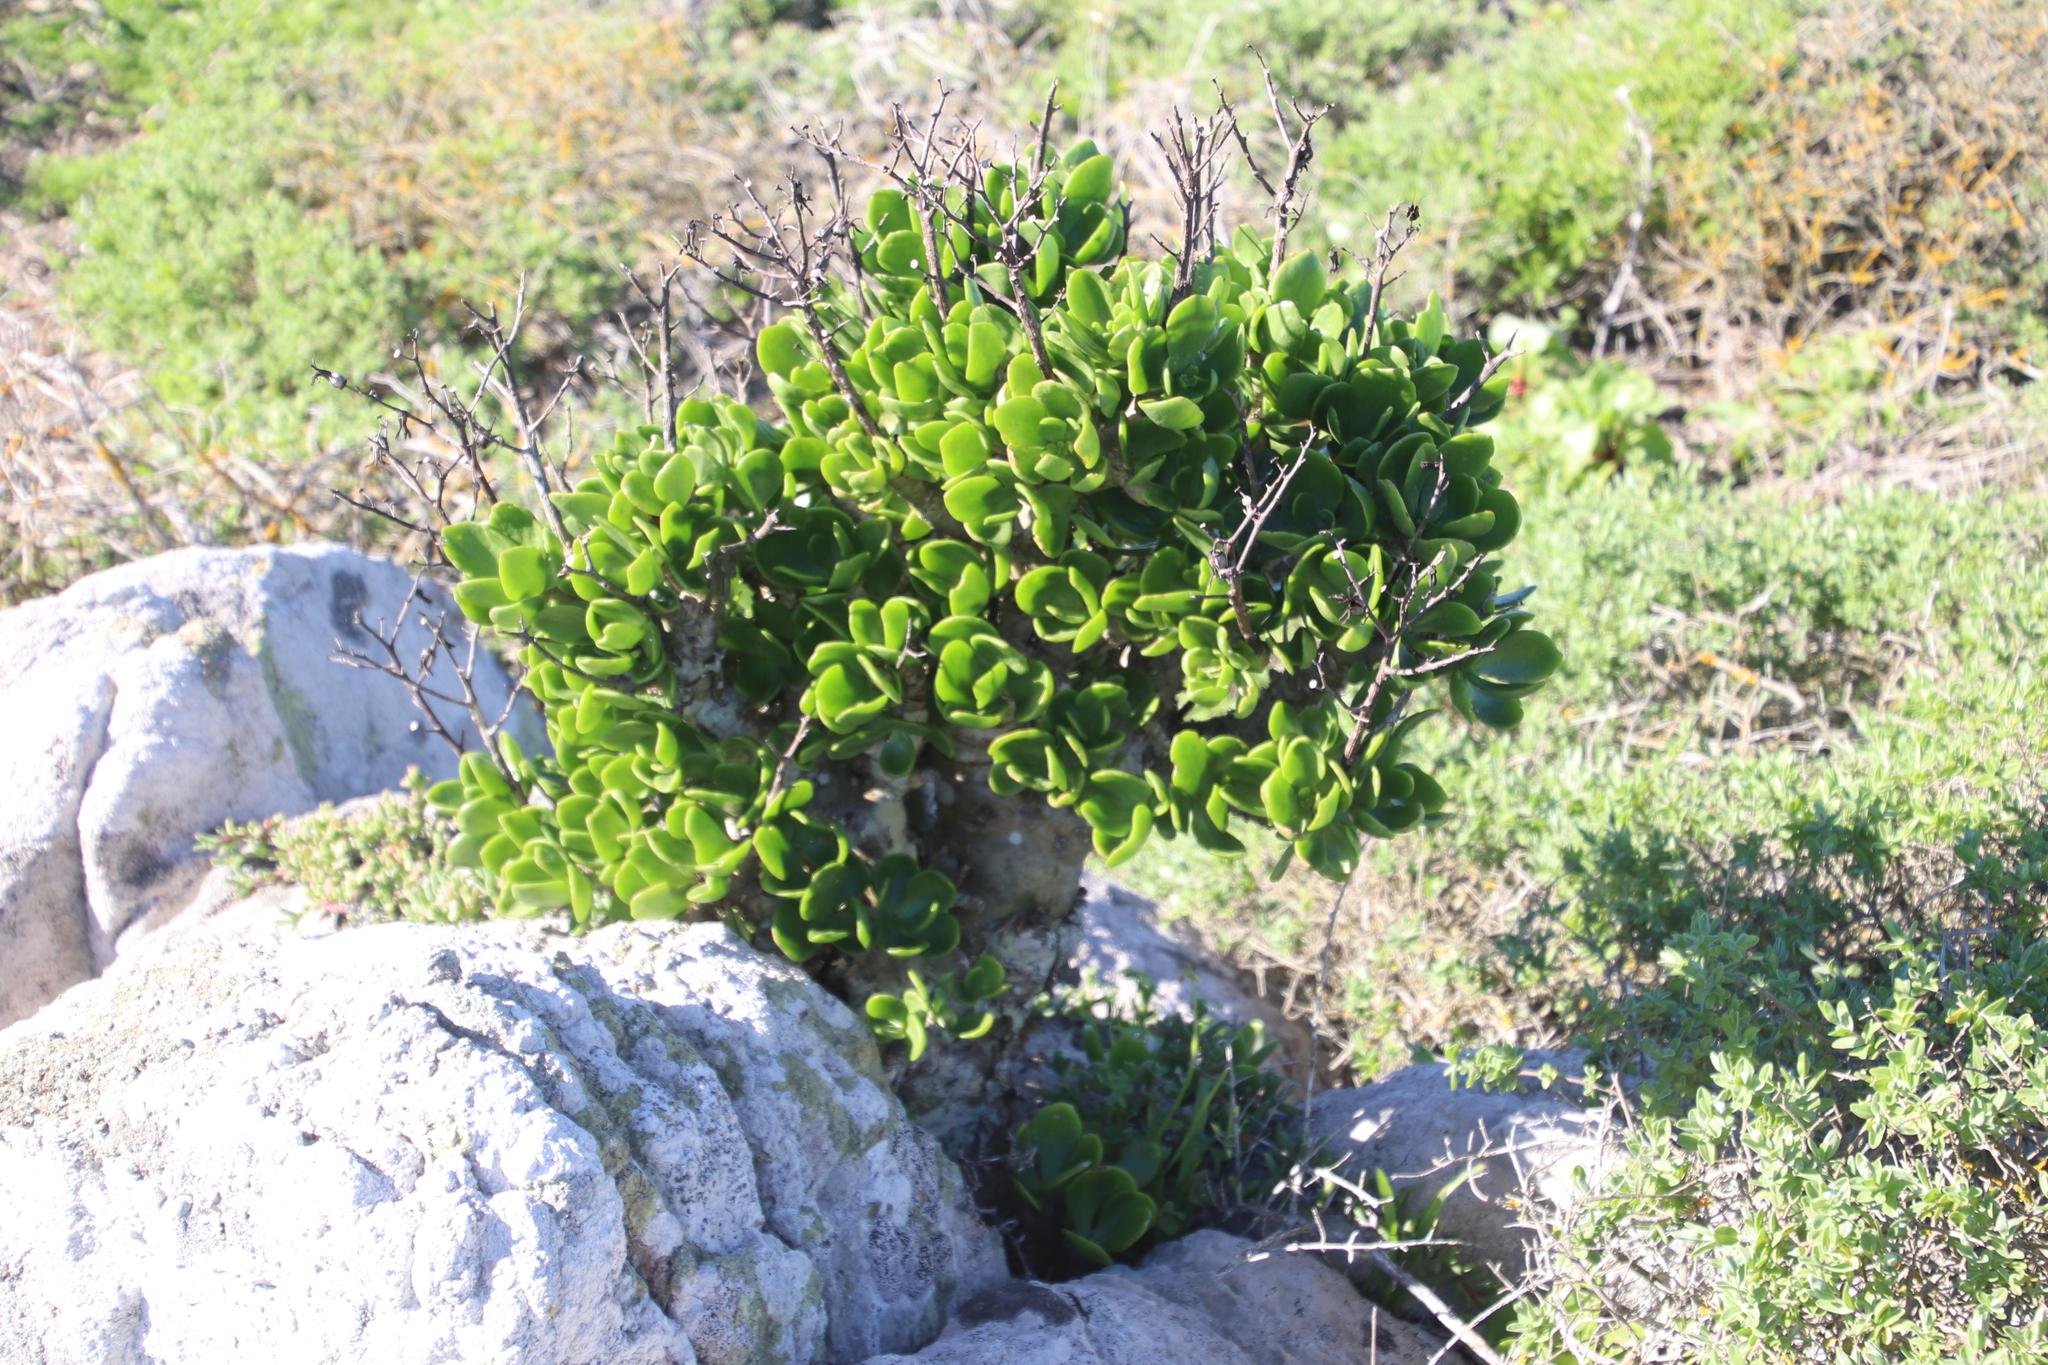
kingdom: Plantae
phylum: Tracheophyta
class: Magnoliopsida
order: Saxifragales
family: Crassulaceae
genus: Tylecodon
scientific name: Tylecodon paniculatus
